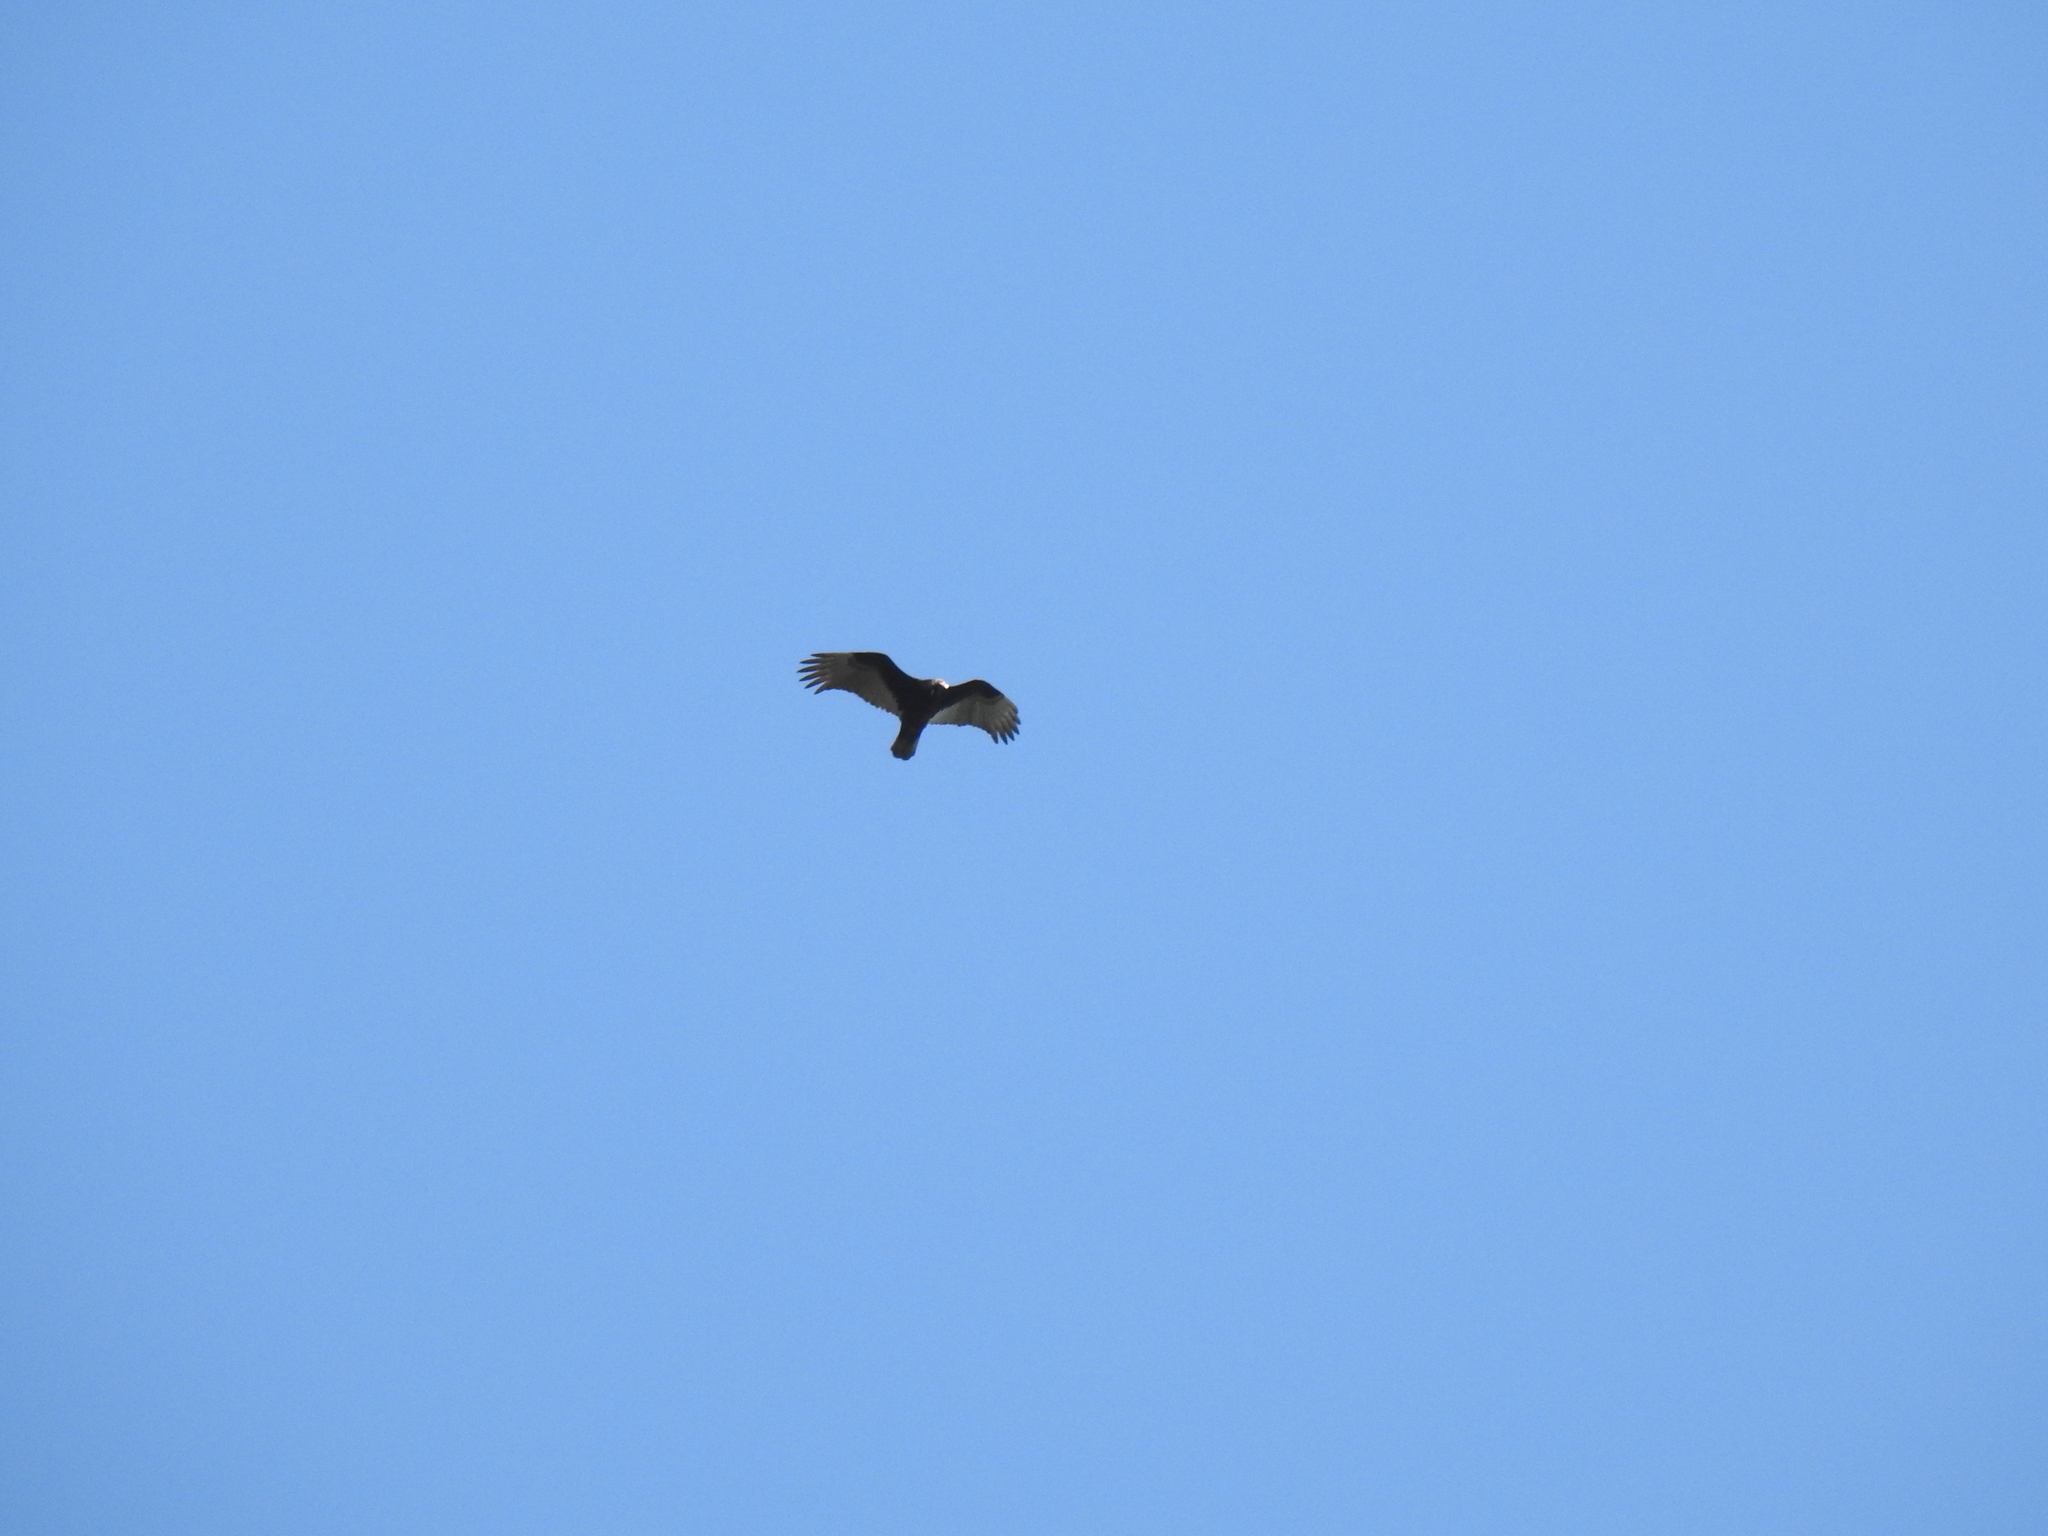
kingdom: Animalia
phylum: Chordata
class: Aves
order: Accipitriformes
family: Cathartidae
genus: Cathartes
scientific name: Cathartes aura
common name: Turkey vulture
